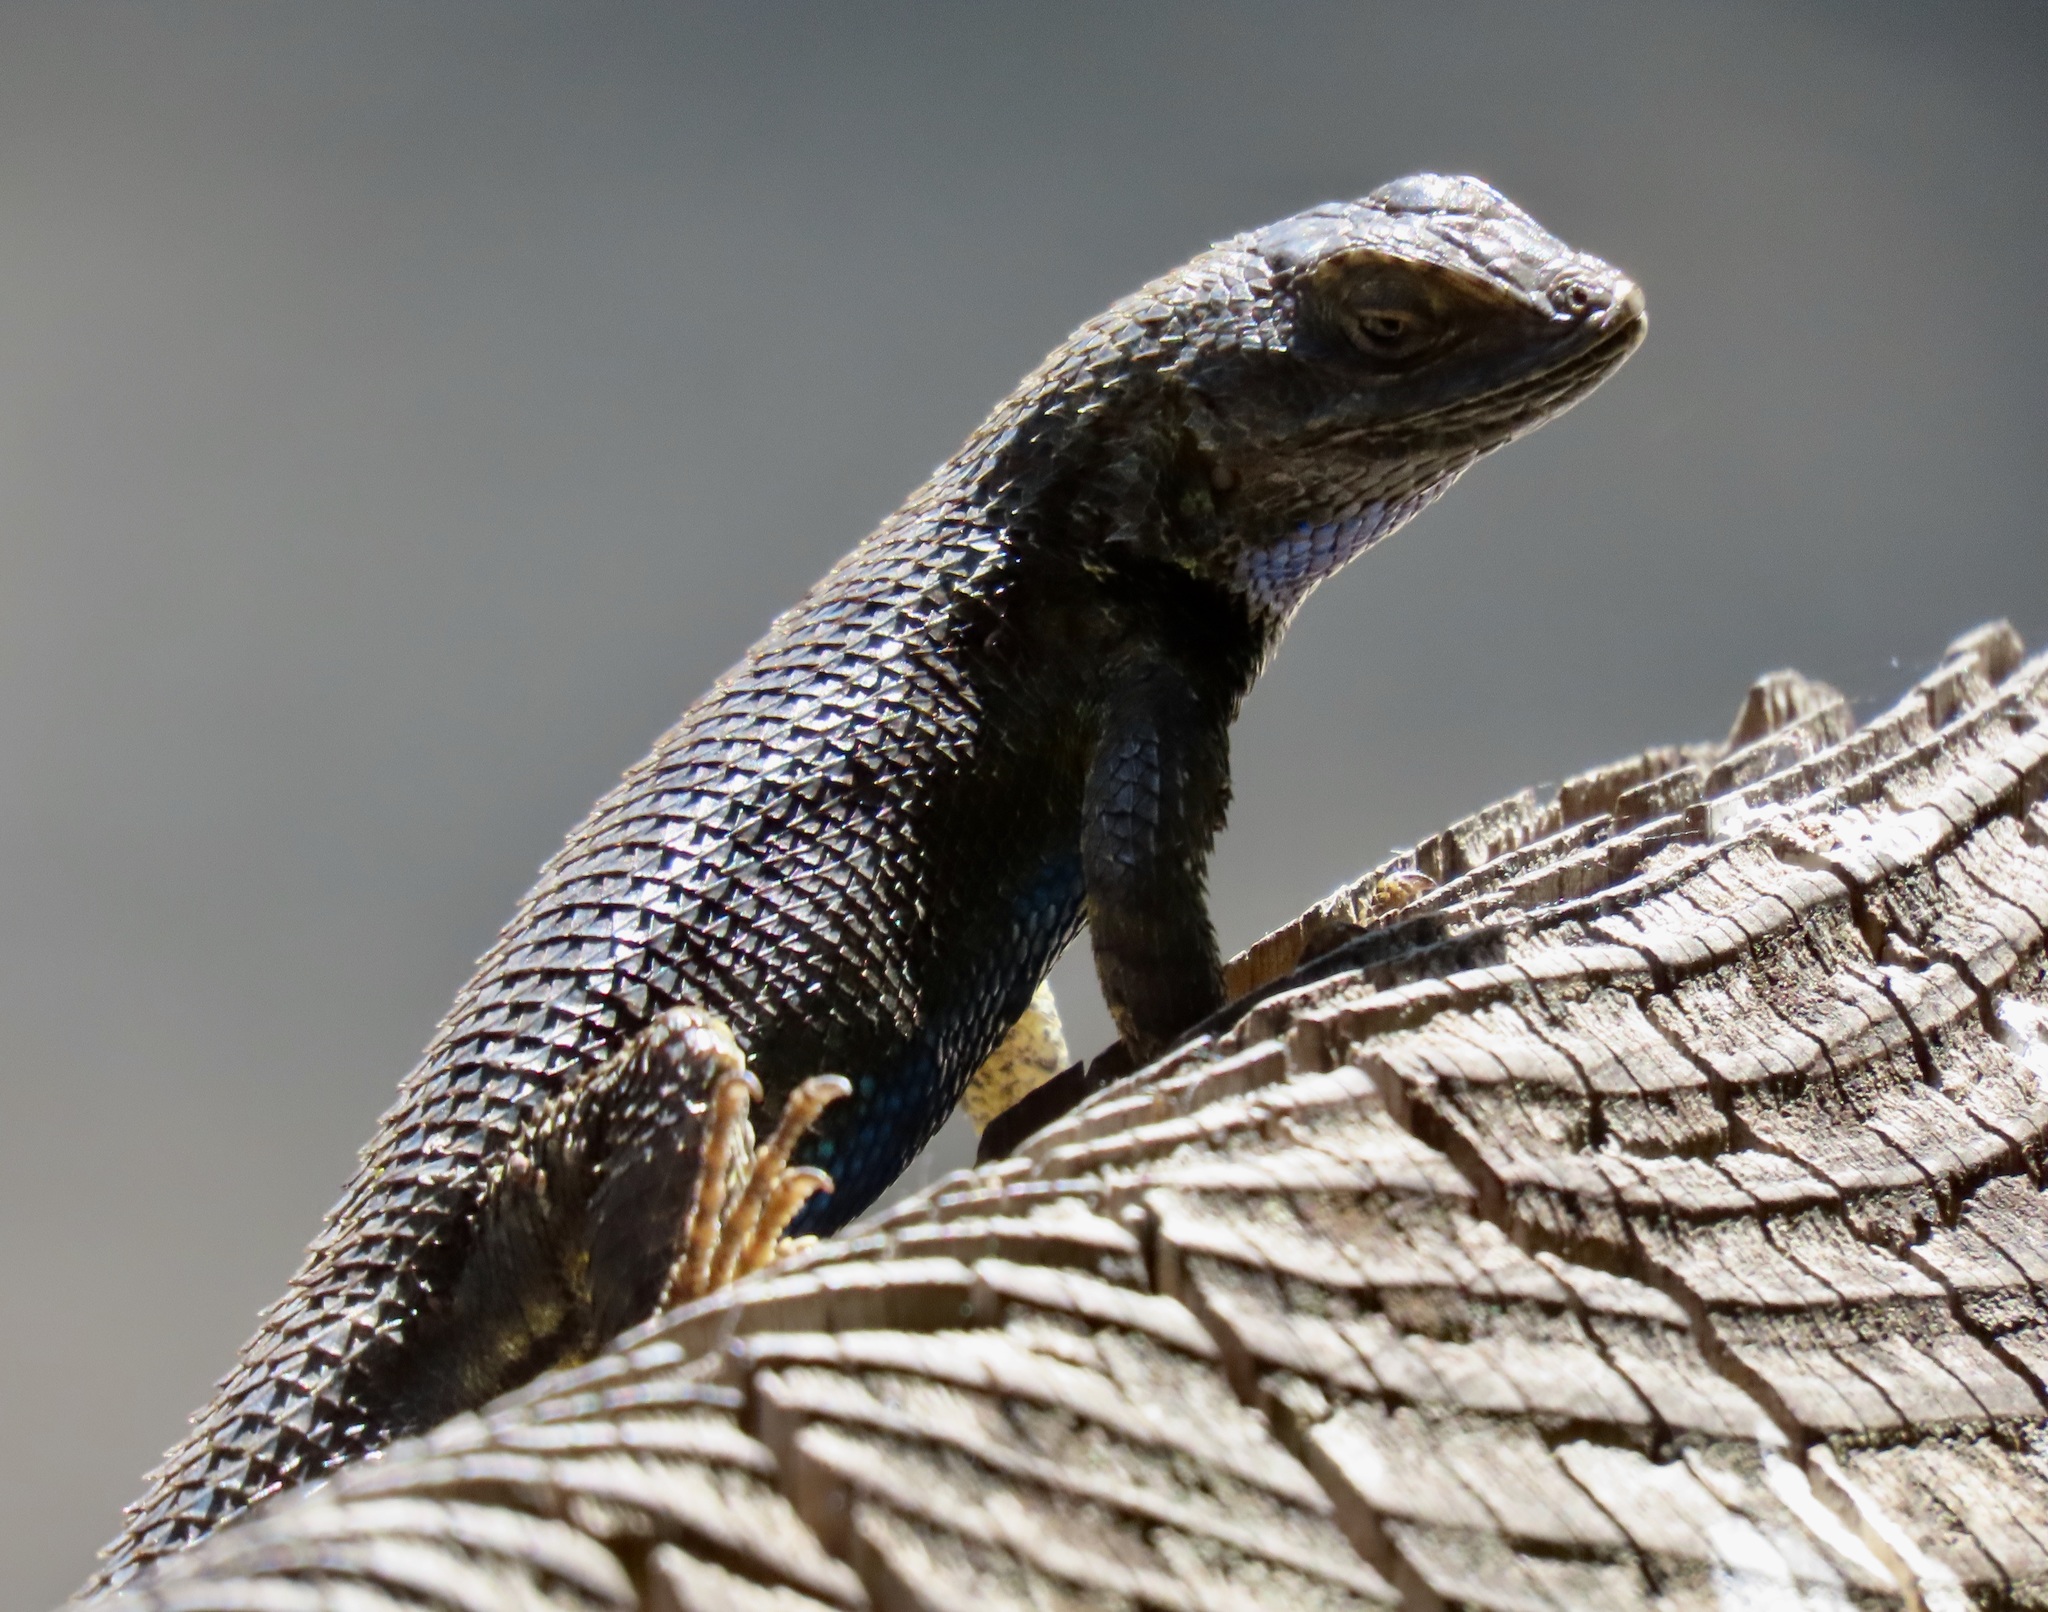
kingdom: Animalia
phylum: Chordata
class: Squamata
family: Phrynosomatidae
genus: Sceloporus
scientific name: Sceloporus occidentalis
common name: Western fence lizard
